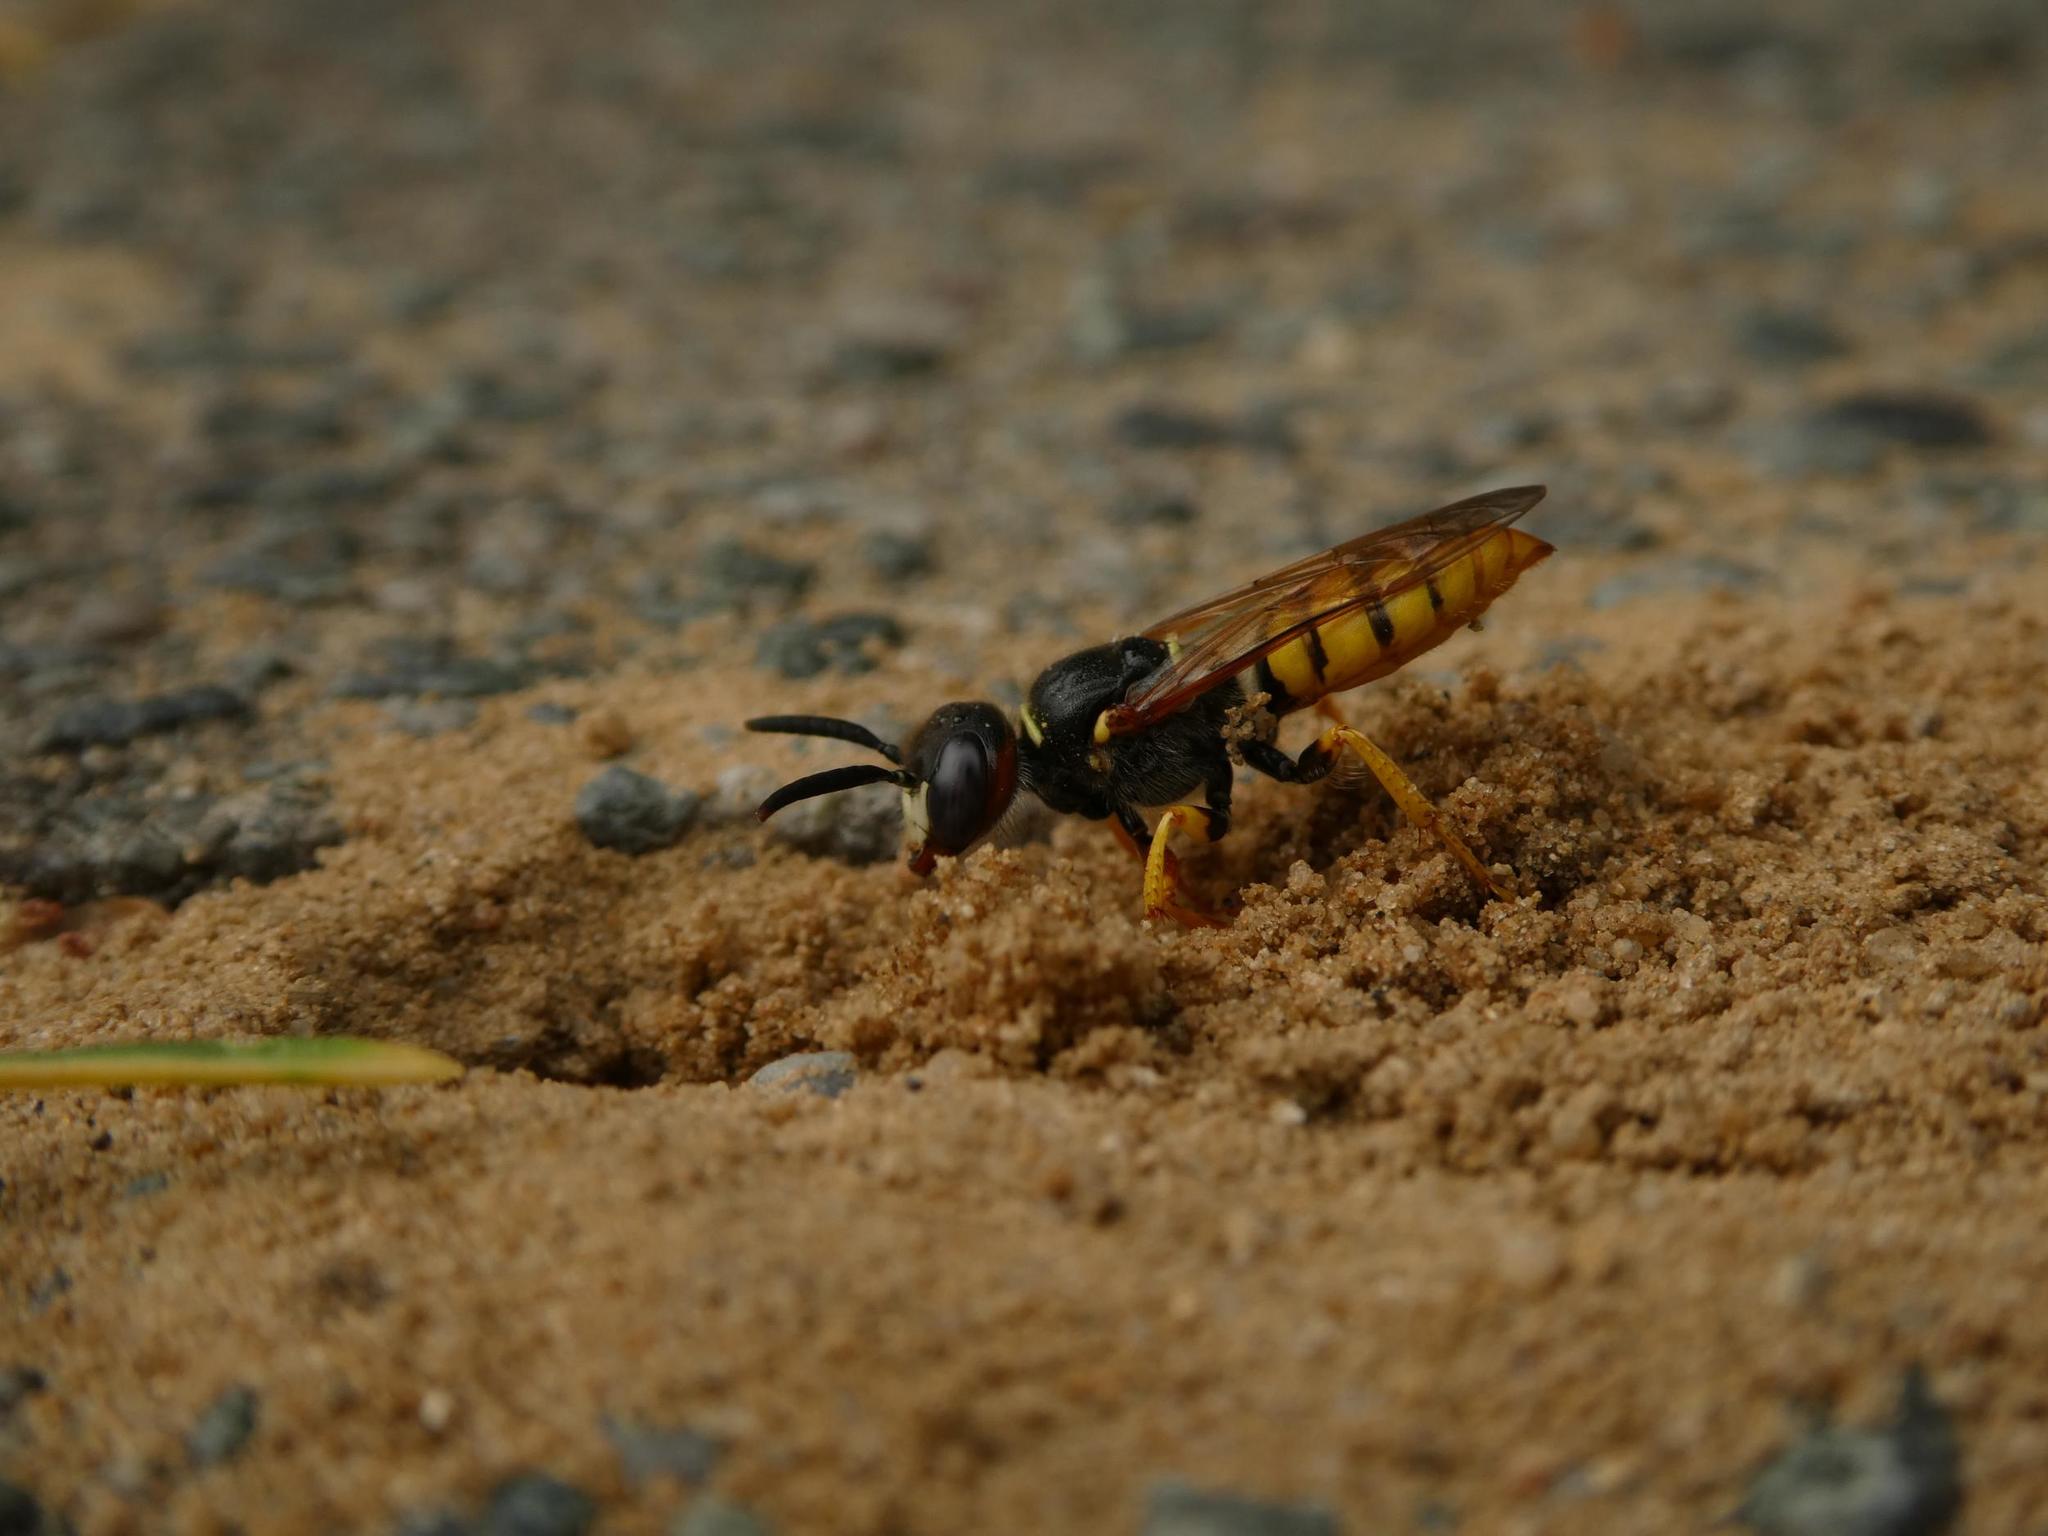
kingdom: Animalia
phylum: Arthropoda
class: Insecta
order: Hymenoptera
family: Crabronidae
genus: Philanthus
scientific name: Philanthus triangulum
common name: Bee wolf
